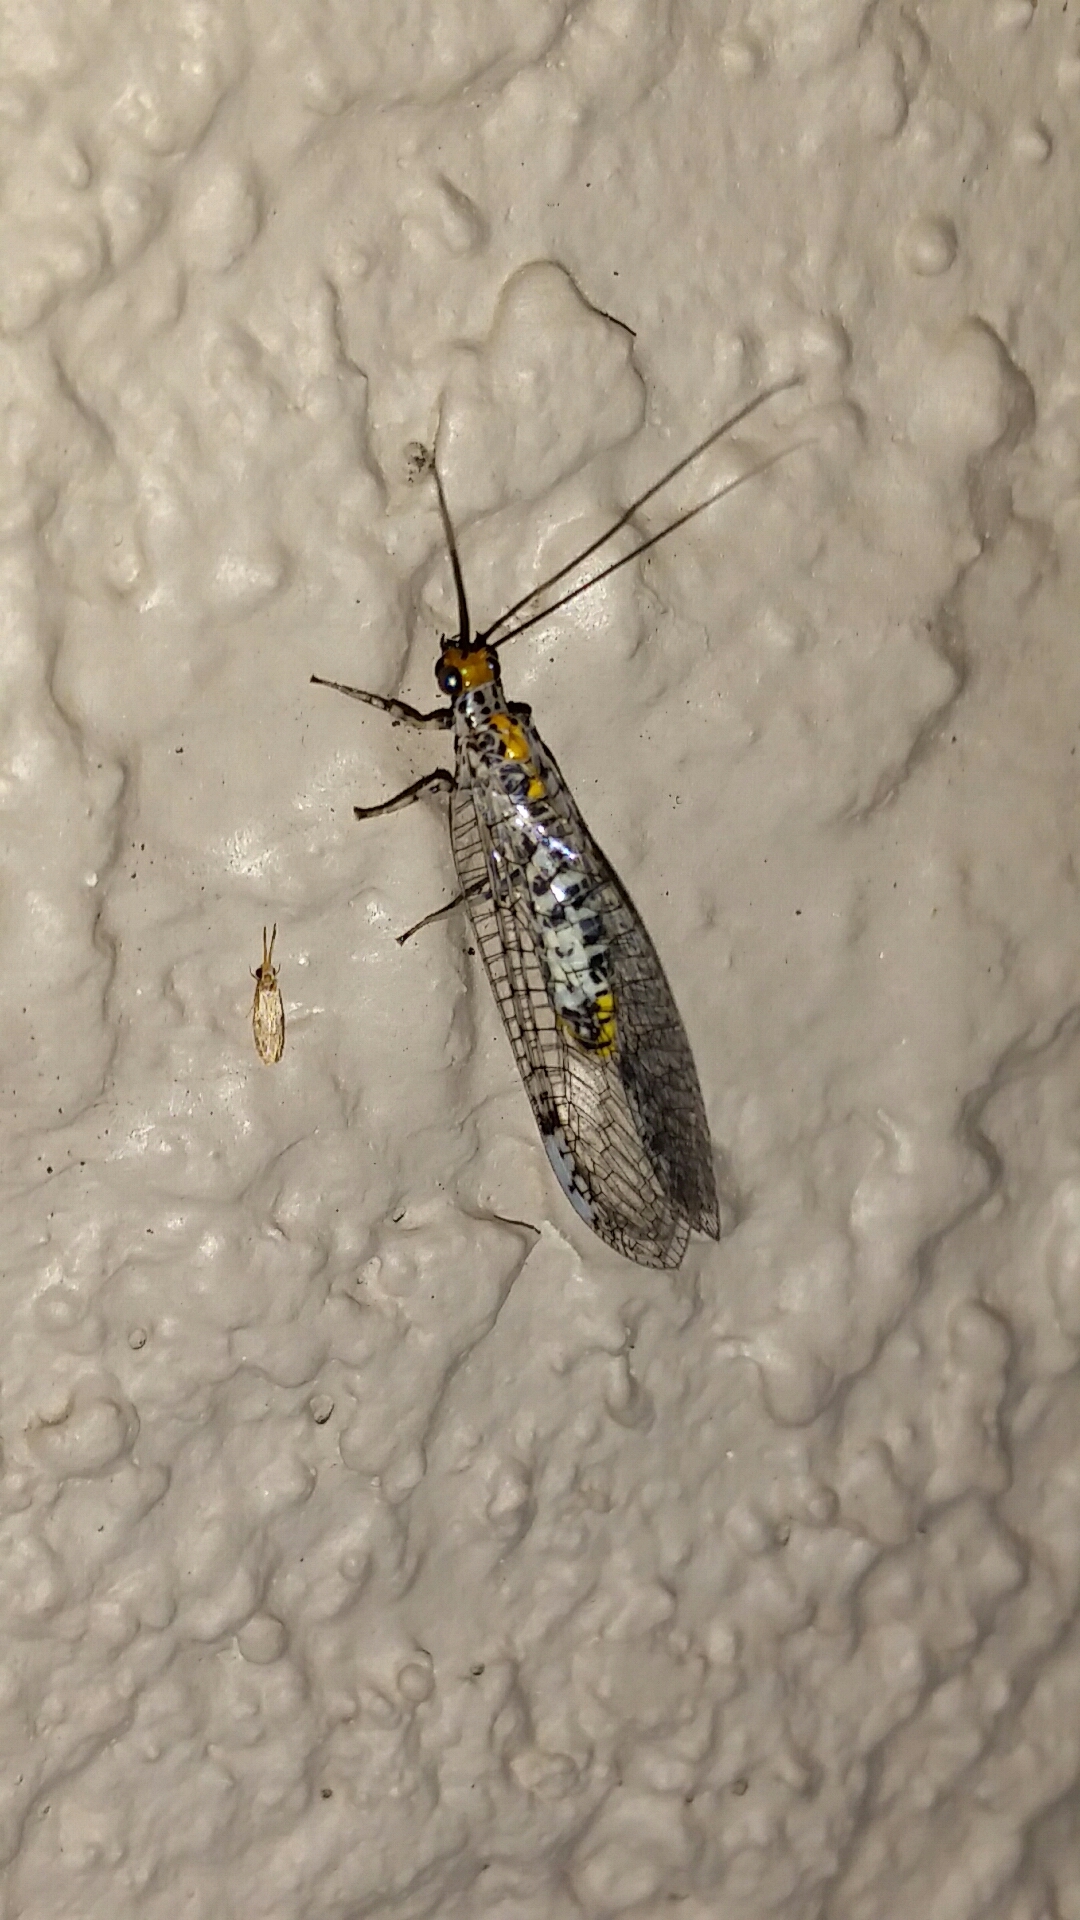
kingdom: Animalia
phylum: Arthropoda
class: Insecta
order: Neuroptera
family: Chrysopidae
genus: Abachrysa
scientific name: Abachrysa eureka
